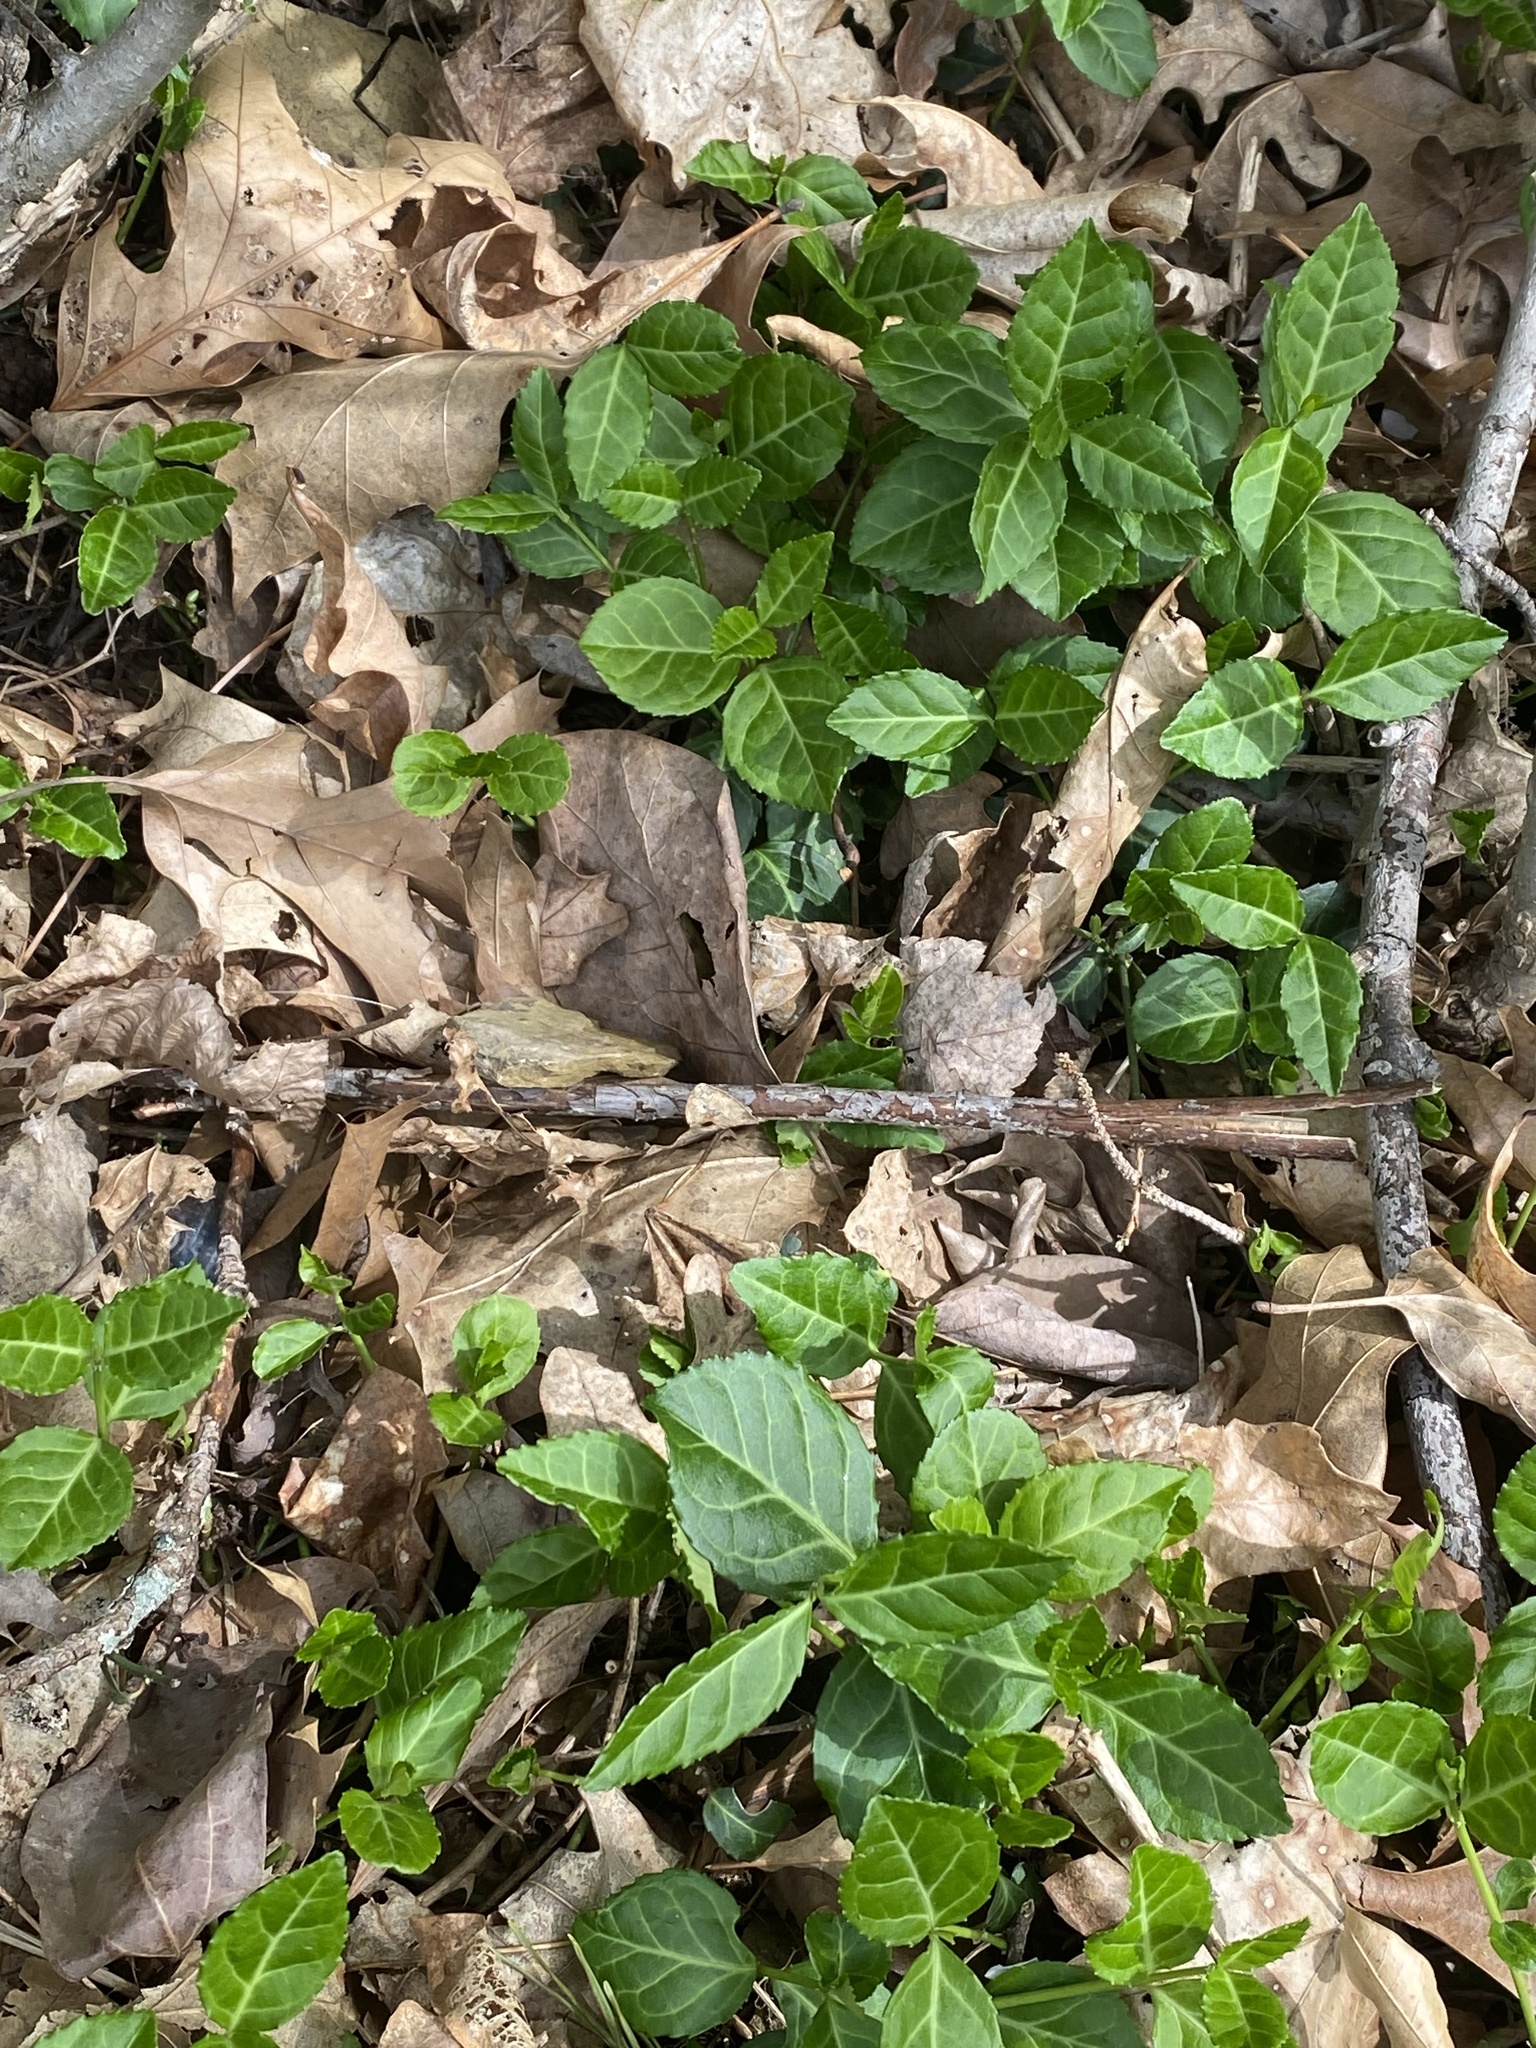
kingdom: Plantae
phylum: Tracheophyta
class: Magnoliopsida
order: Celastrales
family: Celastraceae
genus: Euonymus
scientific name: Euonymus fortunei
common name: Climbing euonymus
